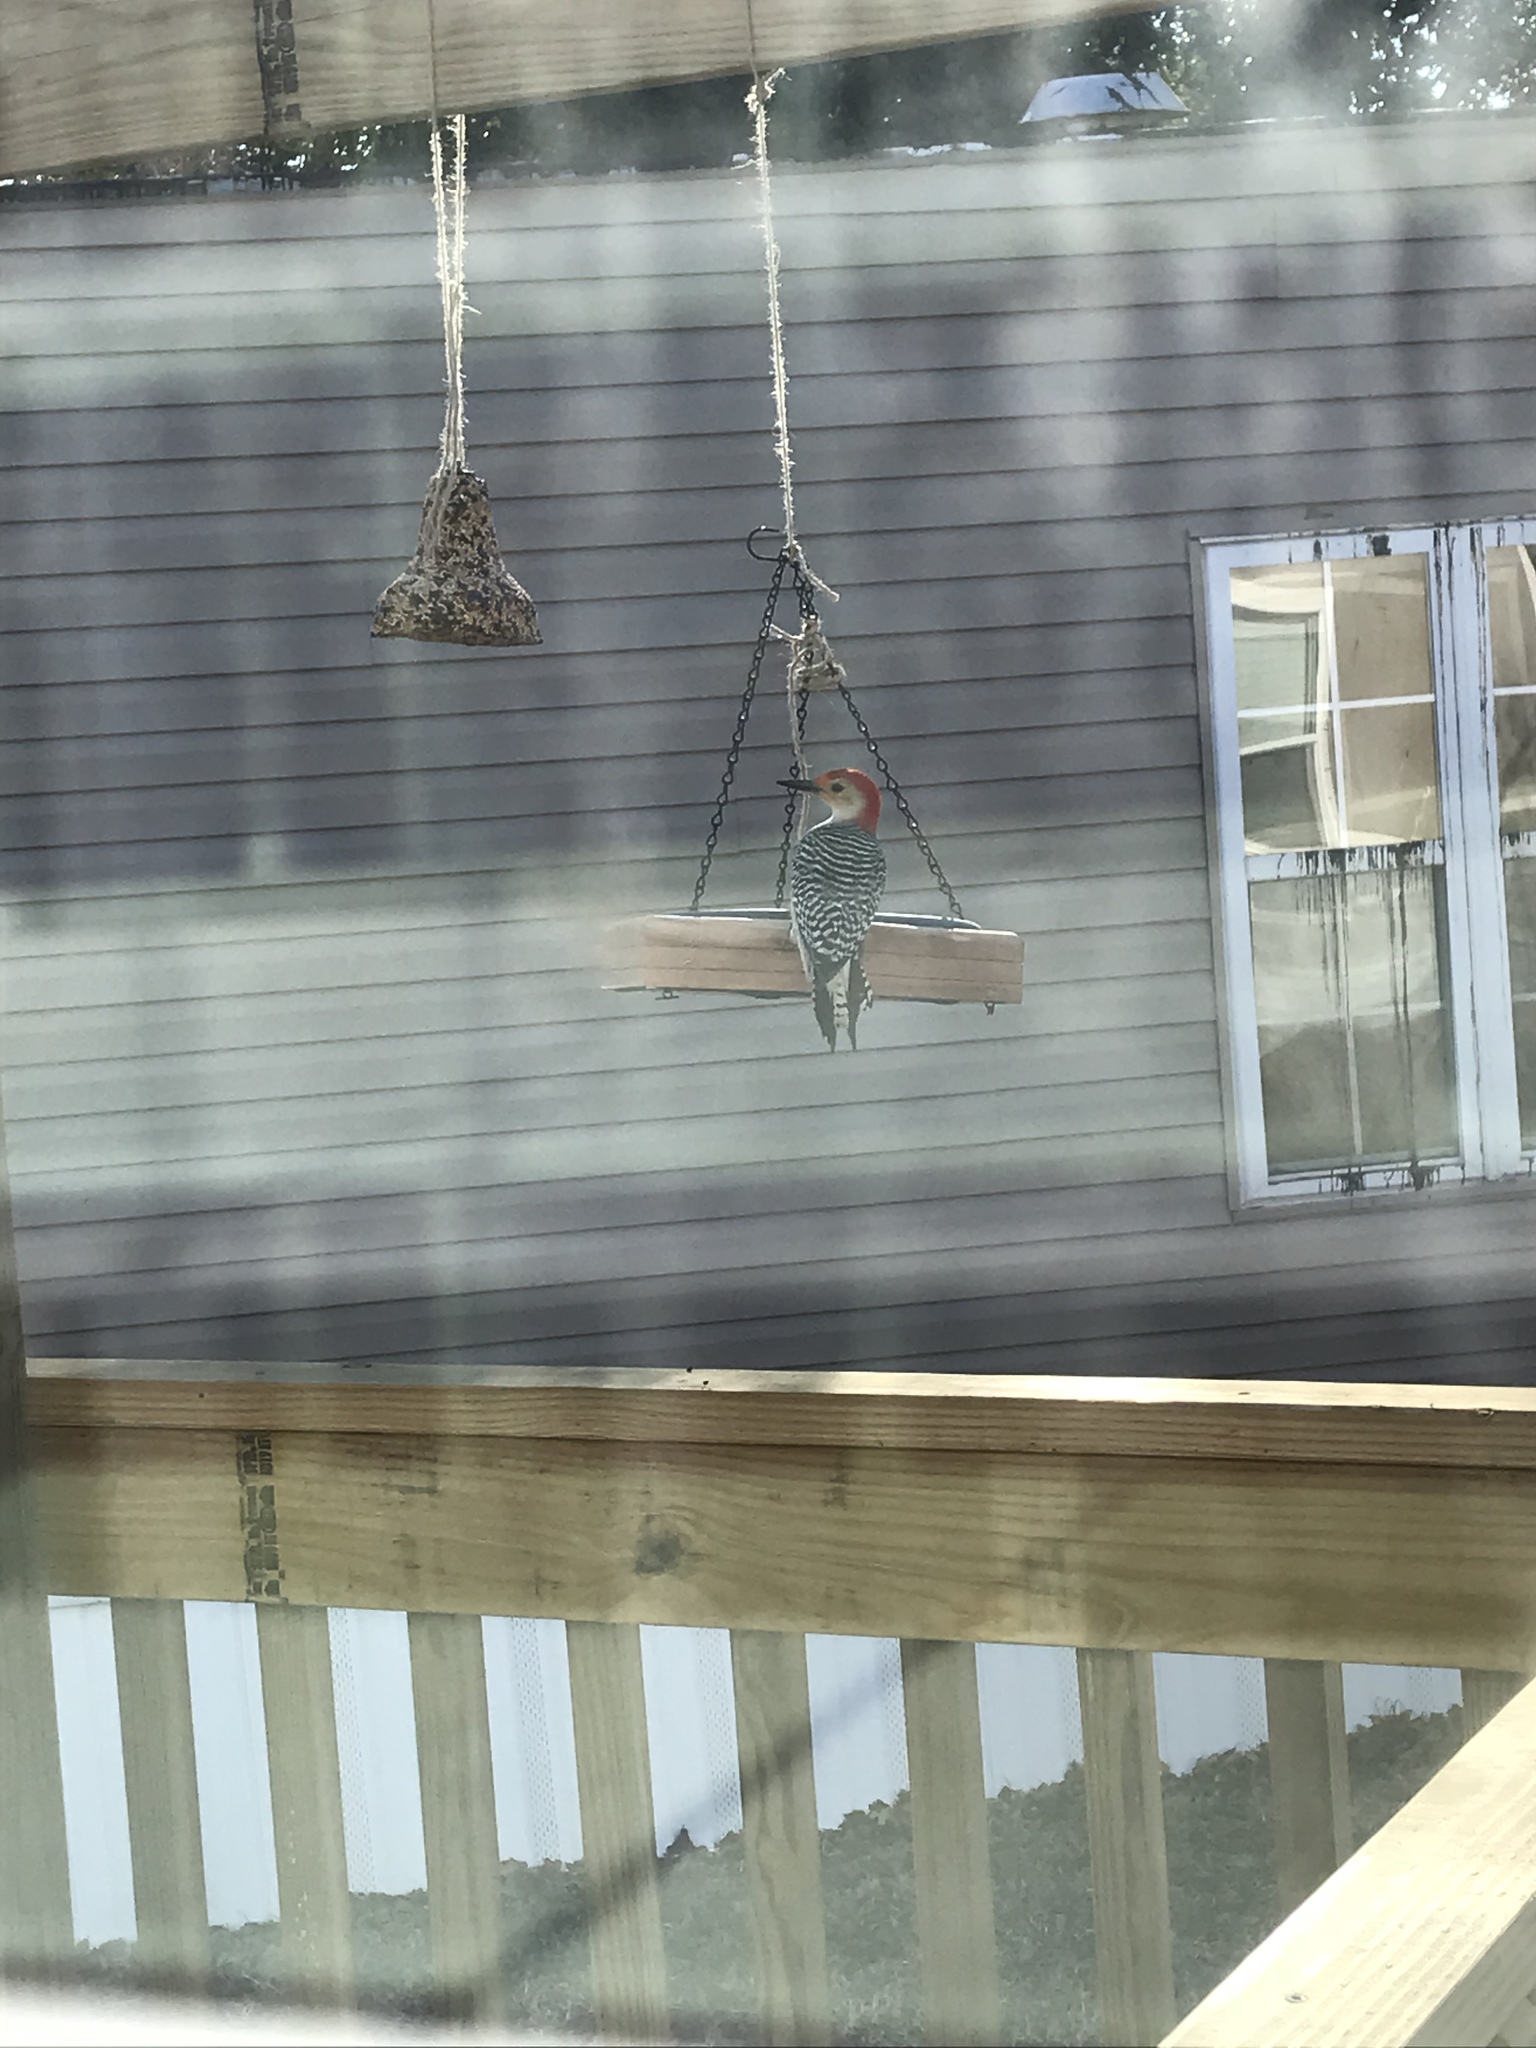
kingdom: Animalia
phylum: Chordata
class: Aves
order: Piciformes
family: Picidae
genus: Melanerpes
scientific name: Melanerpes carolinus
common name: Red-bellied woodpecker
